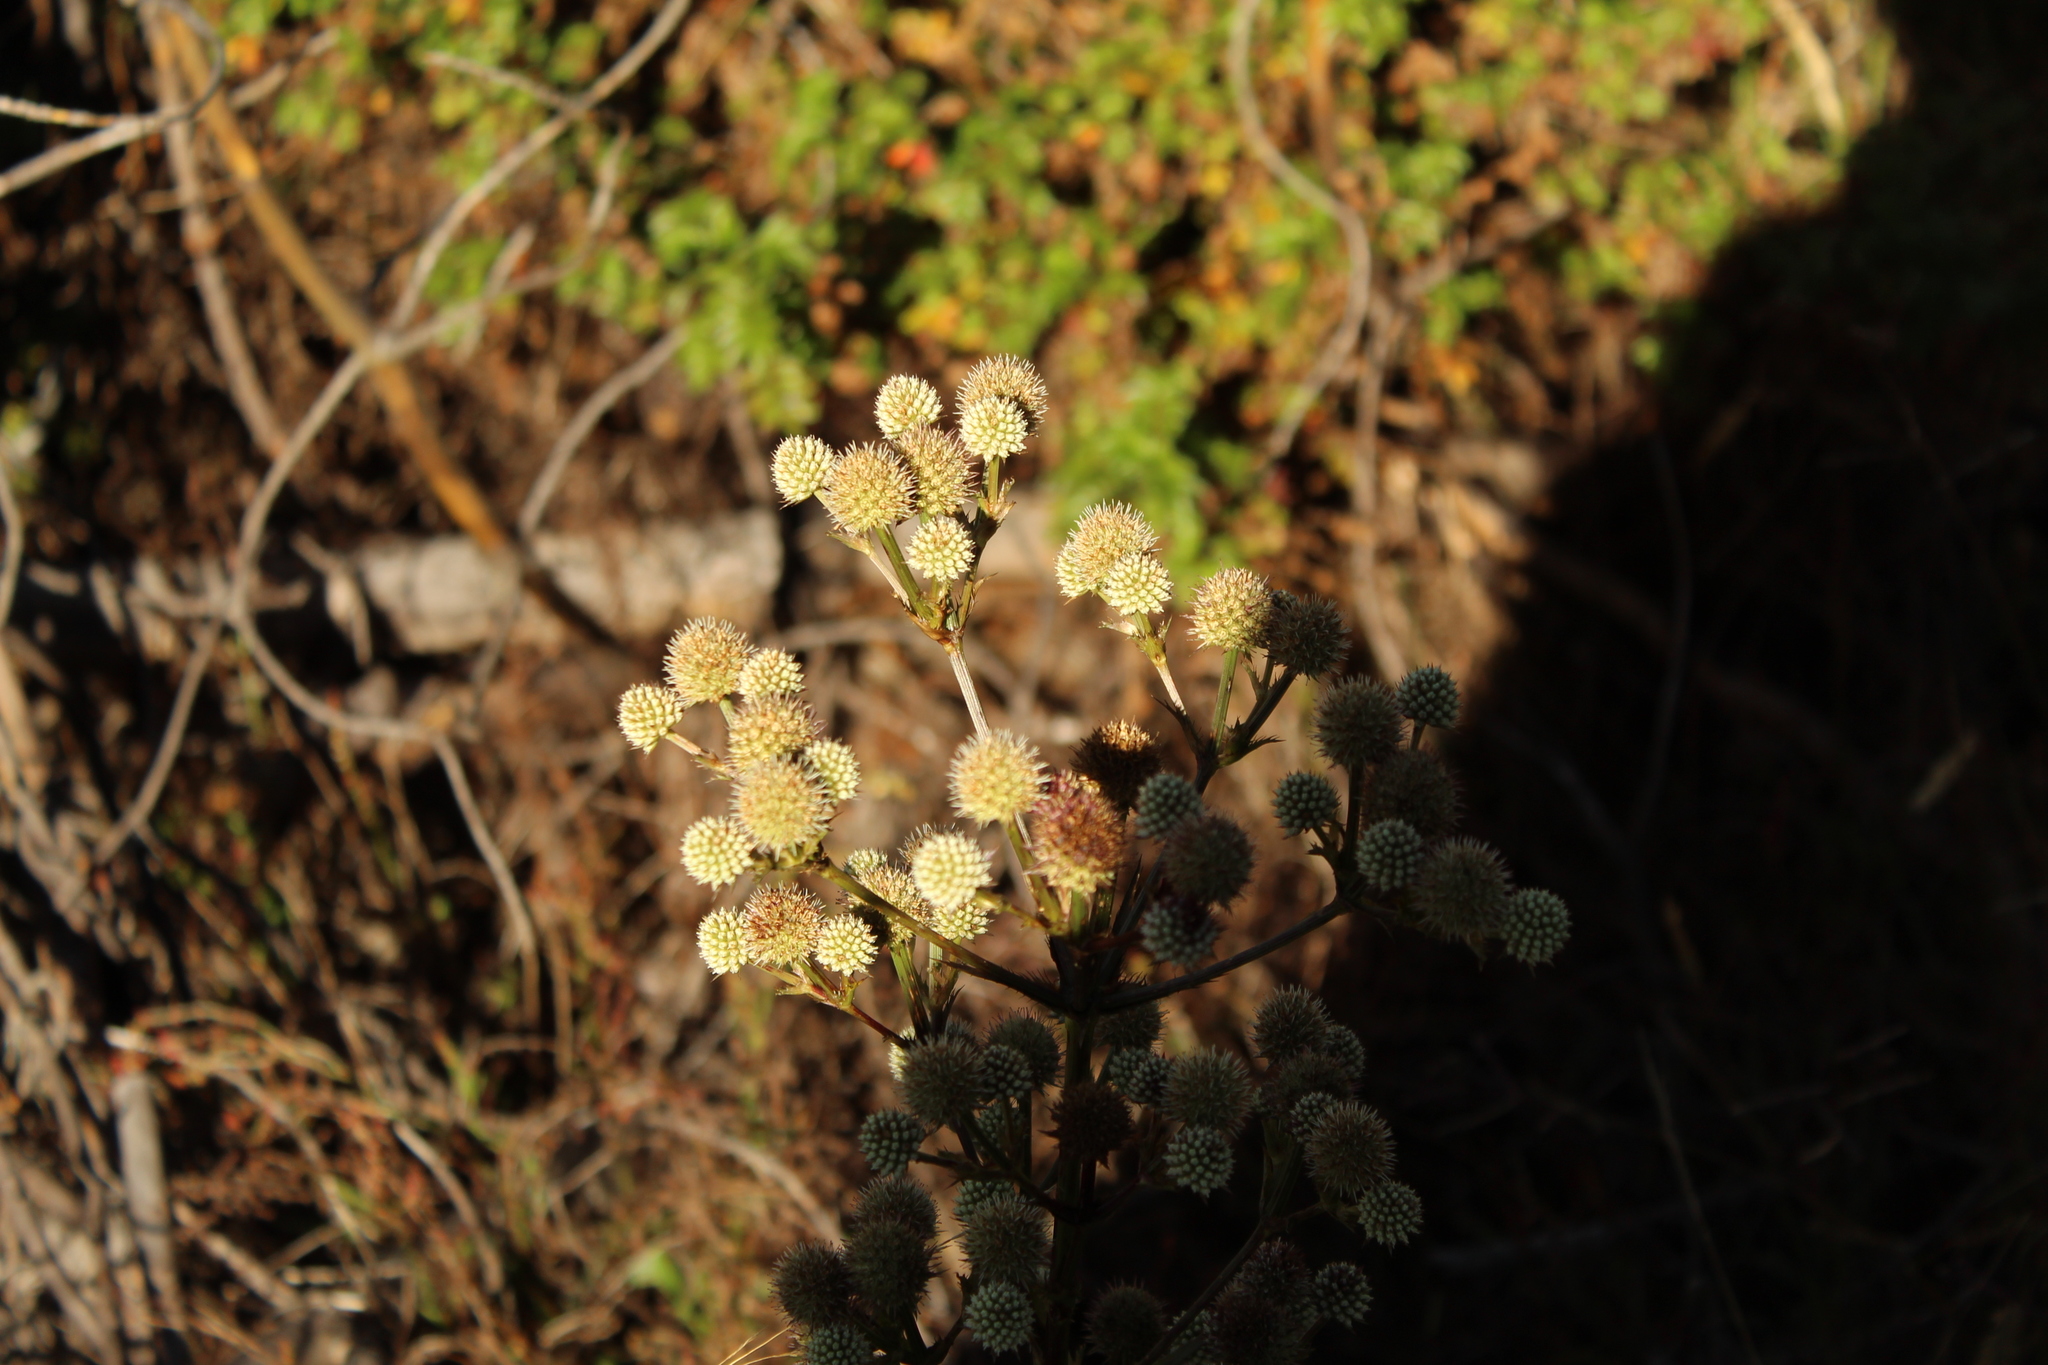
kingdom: Plantae
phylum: Tracheophyta
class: Magnoliopsida
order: Apiales
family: Apiaceae
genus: Eryngium
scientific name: Eryngium humboldtii
